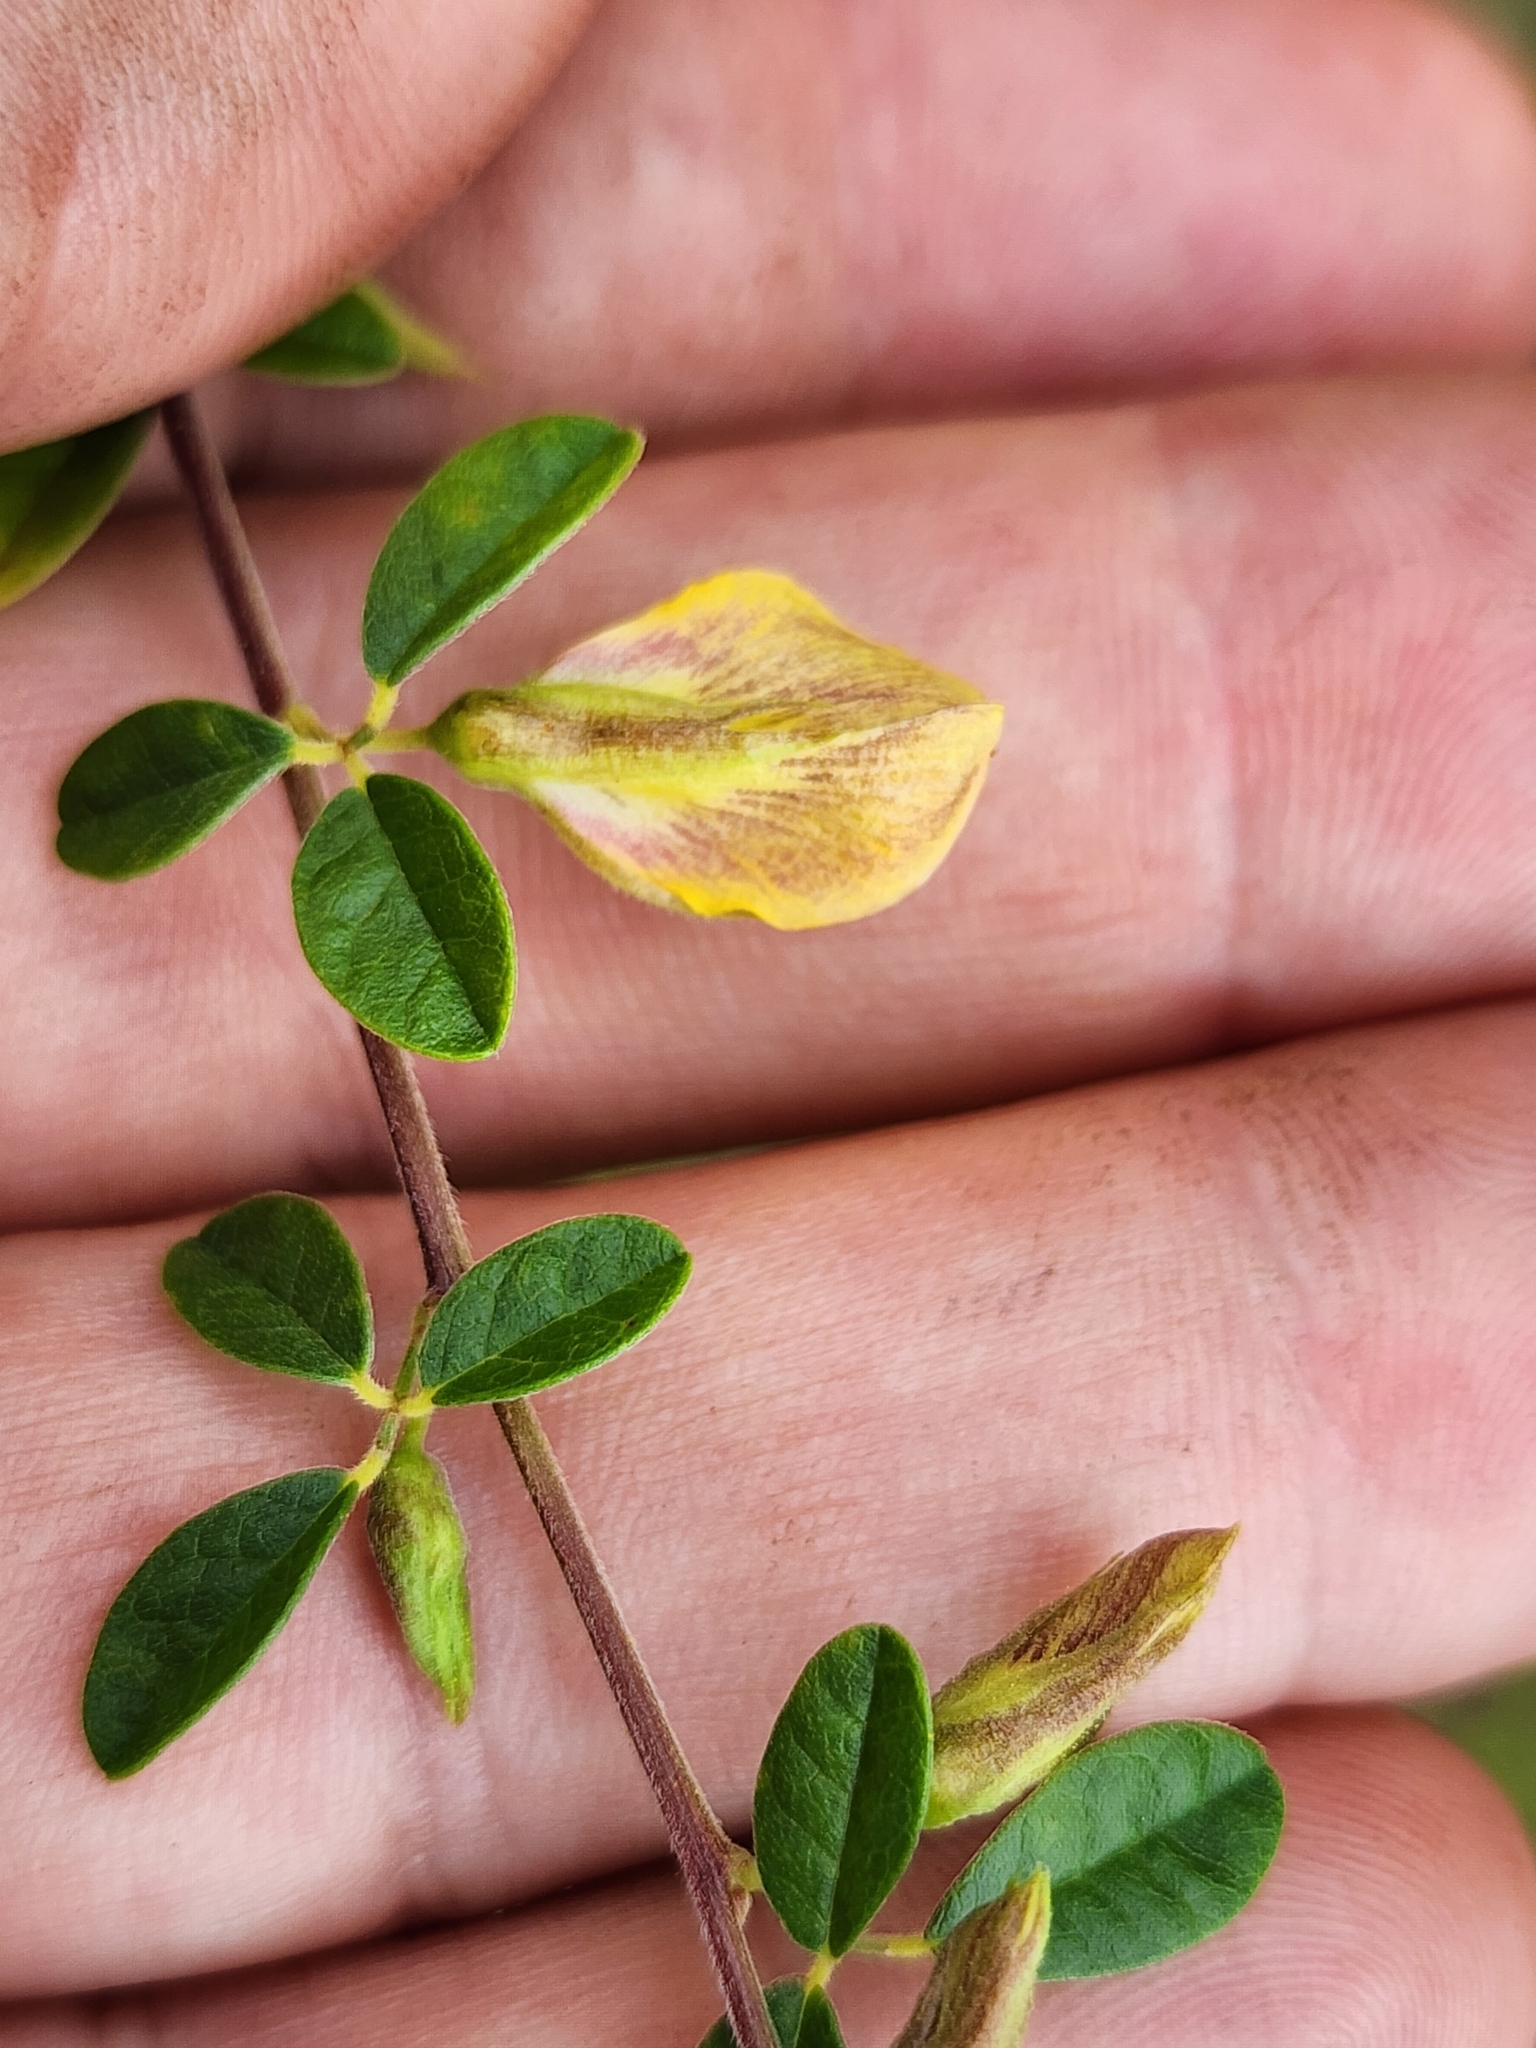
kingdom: Plantae
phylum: Tracheophyta
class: Magnoliopsida
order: Fabales
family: Fabaceae
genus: Rhynchosia
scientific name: Rhynchosia cytisoides
